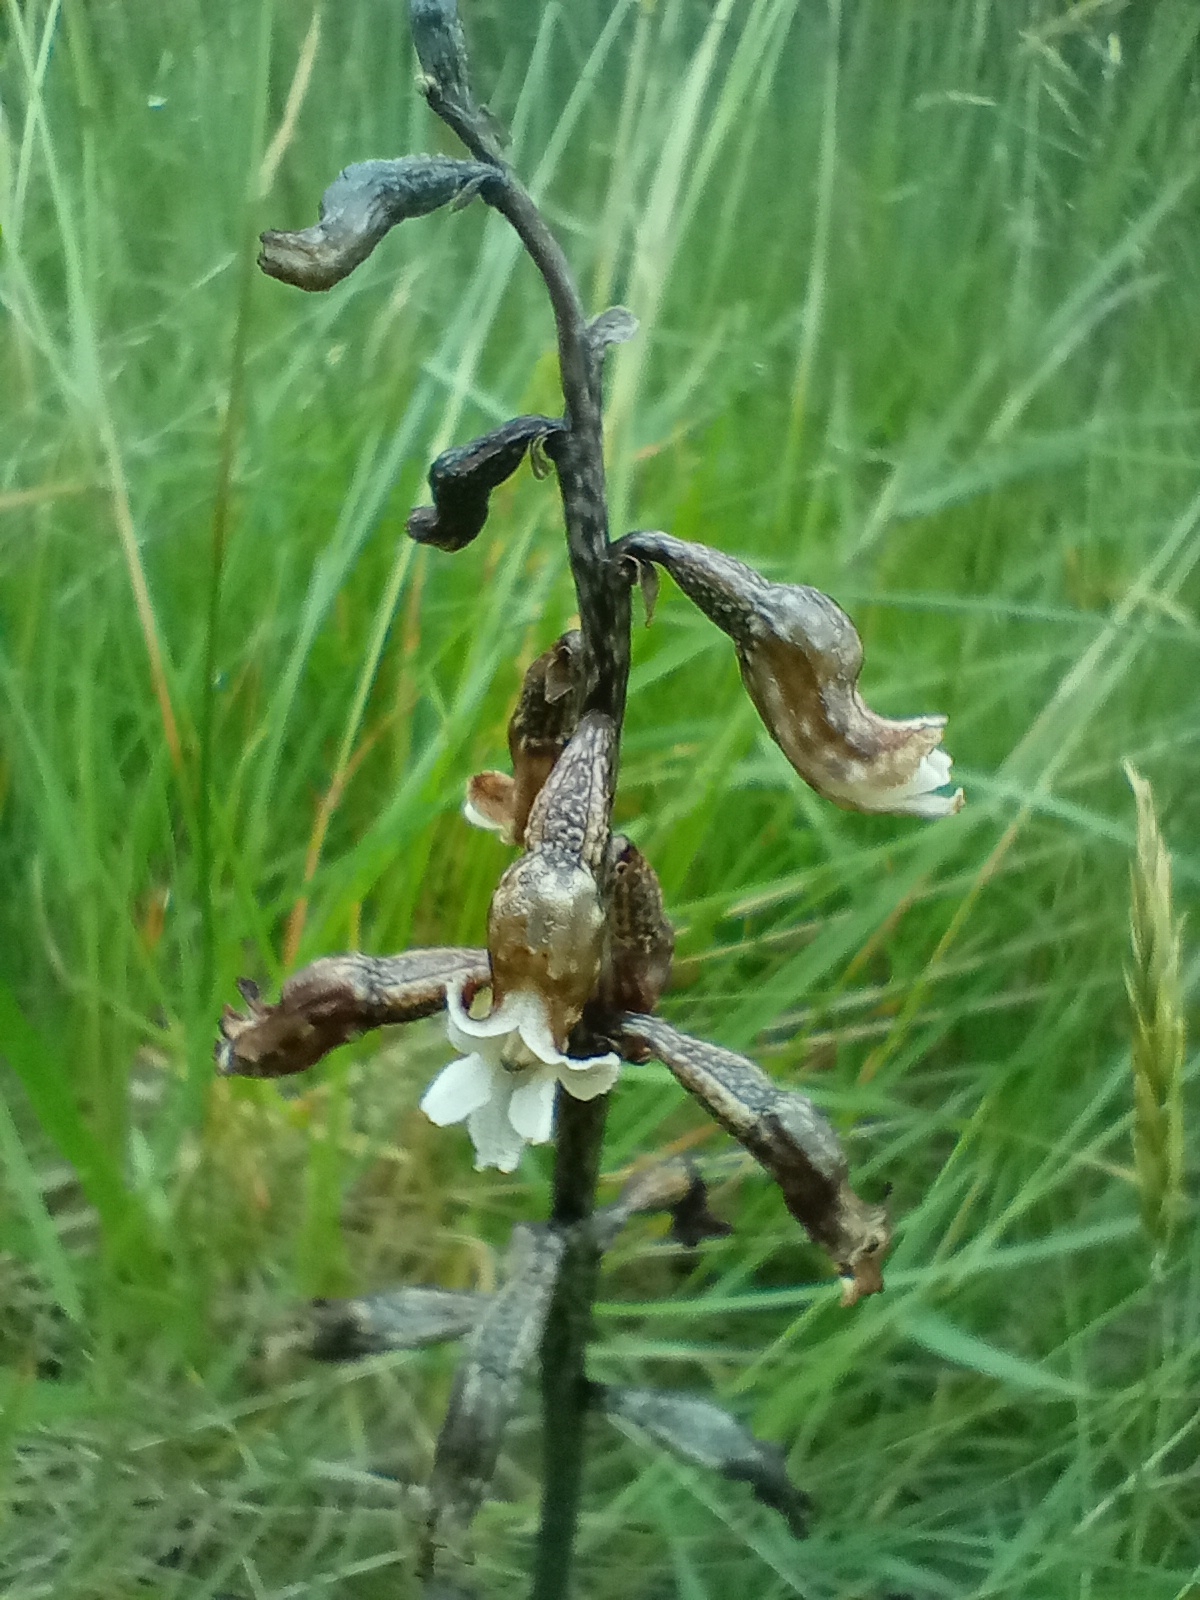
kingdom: Plantae
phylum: Tracheophyta
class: Liliopsida
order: Asparagales
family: Orchidaceae
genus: Gastrodia
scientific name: Gastrodia cunninghamii
